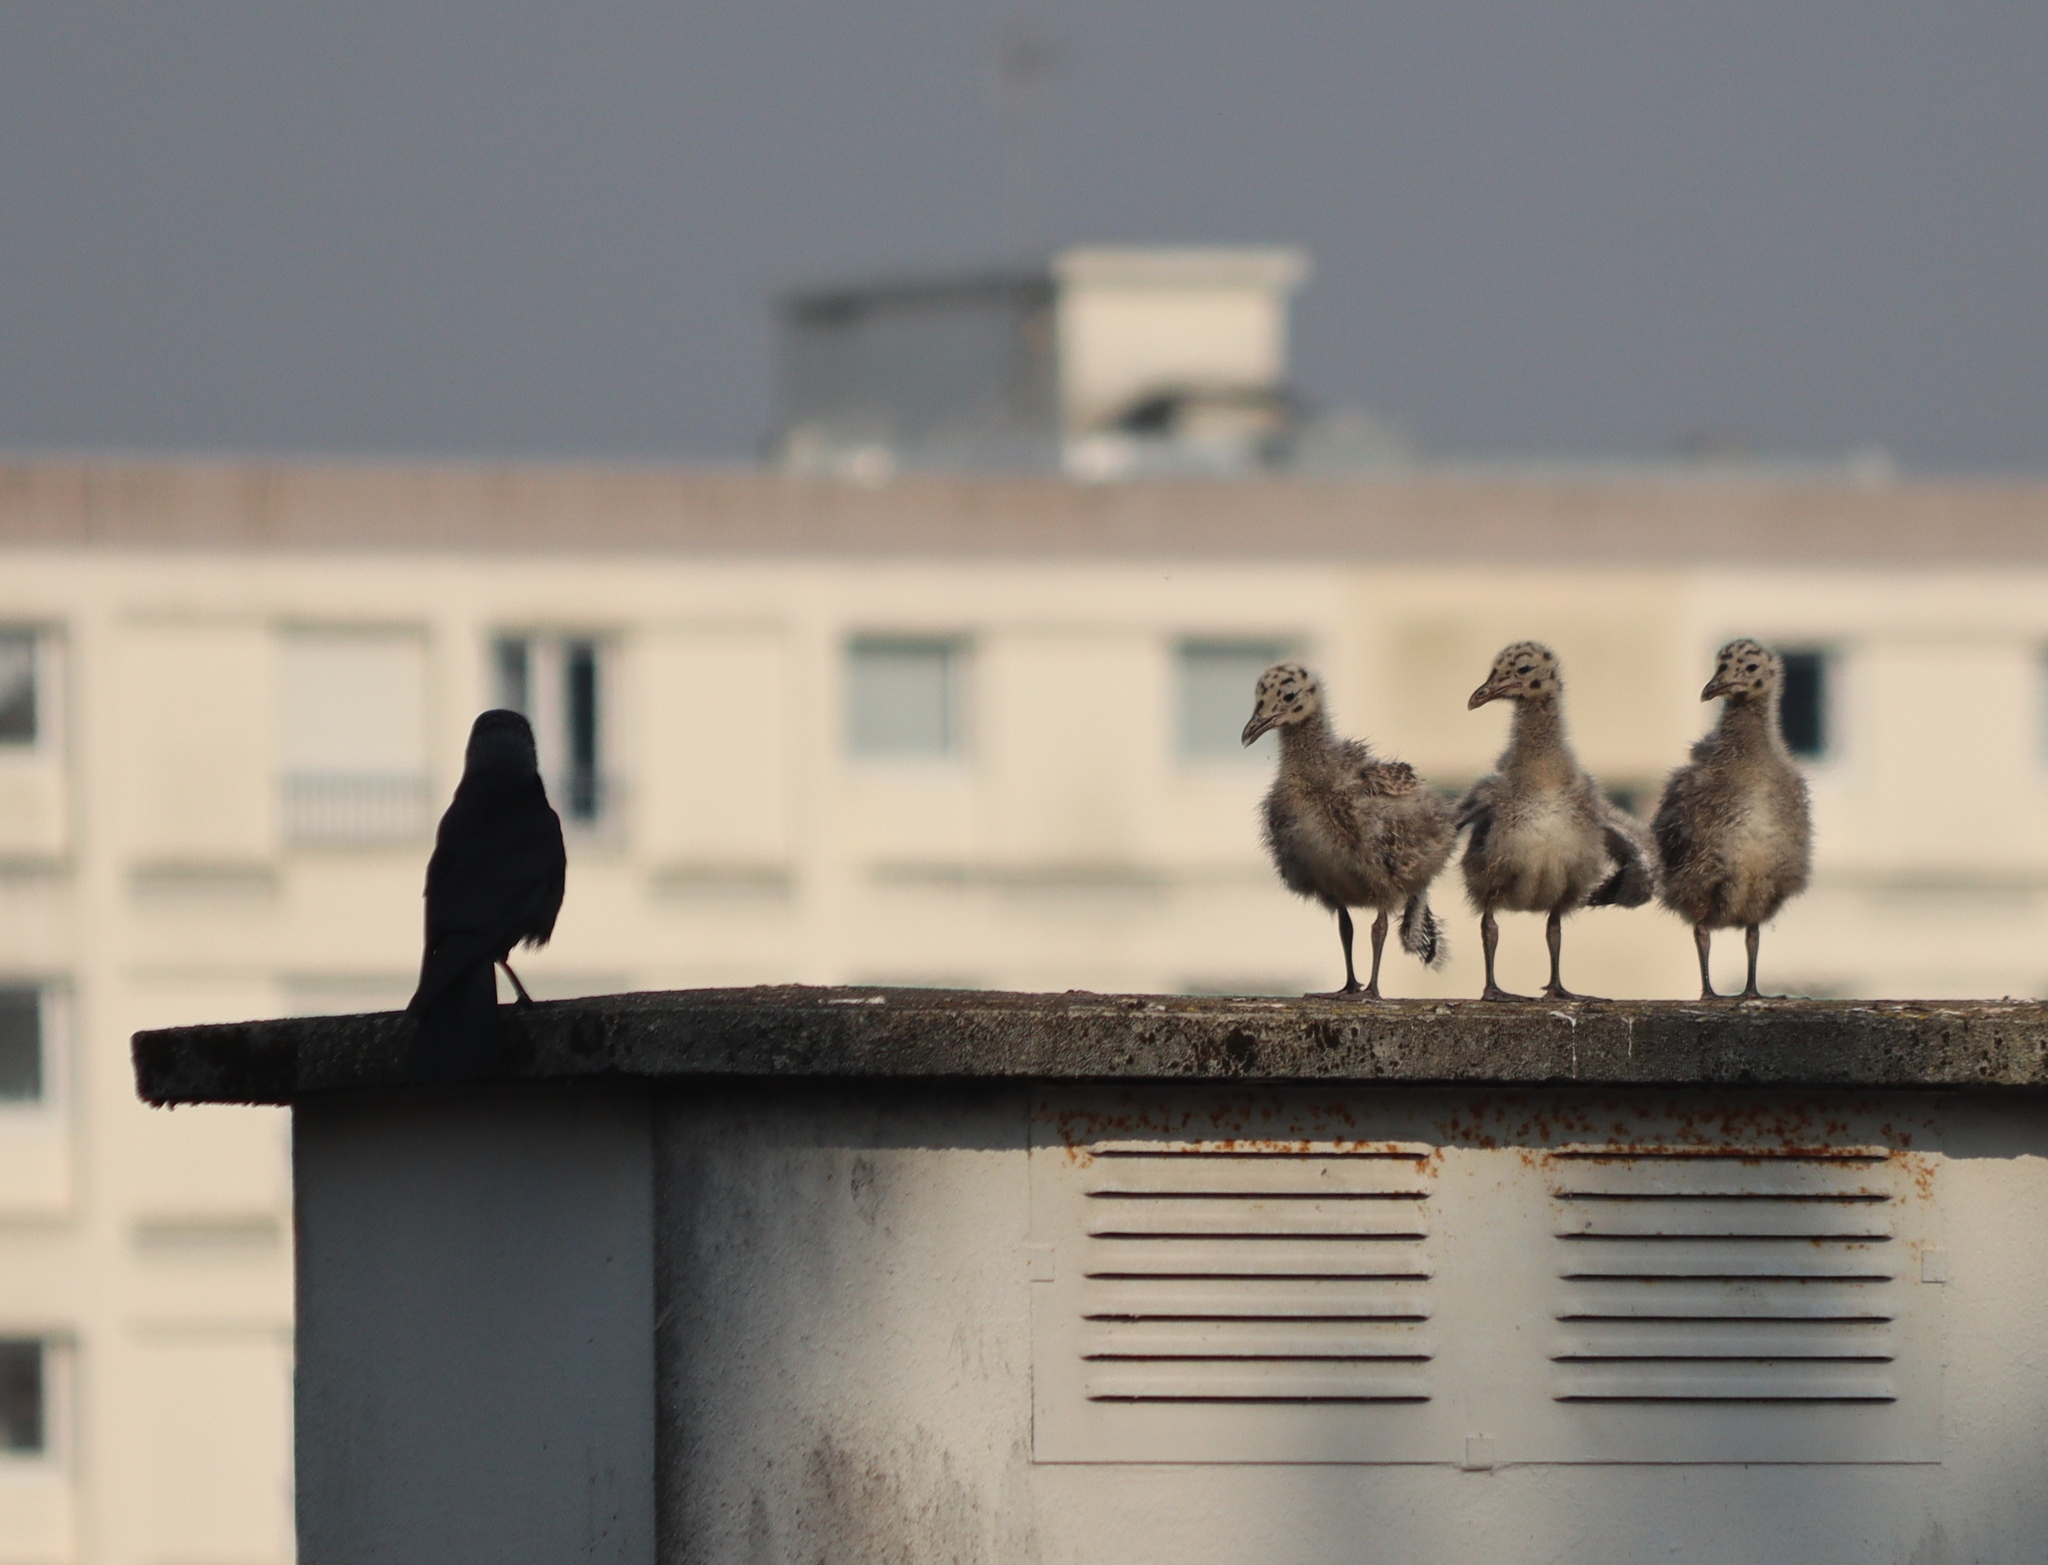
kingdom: Animalia
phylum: Chordata
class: Aves
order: Charadriiformes
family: Laridae
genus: Larus
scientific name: Larus argentatus
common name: Herring gull
